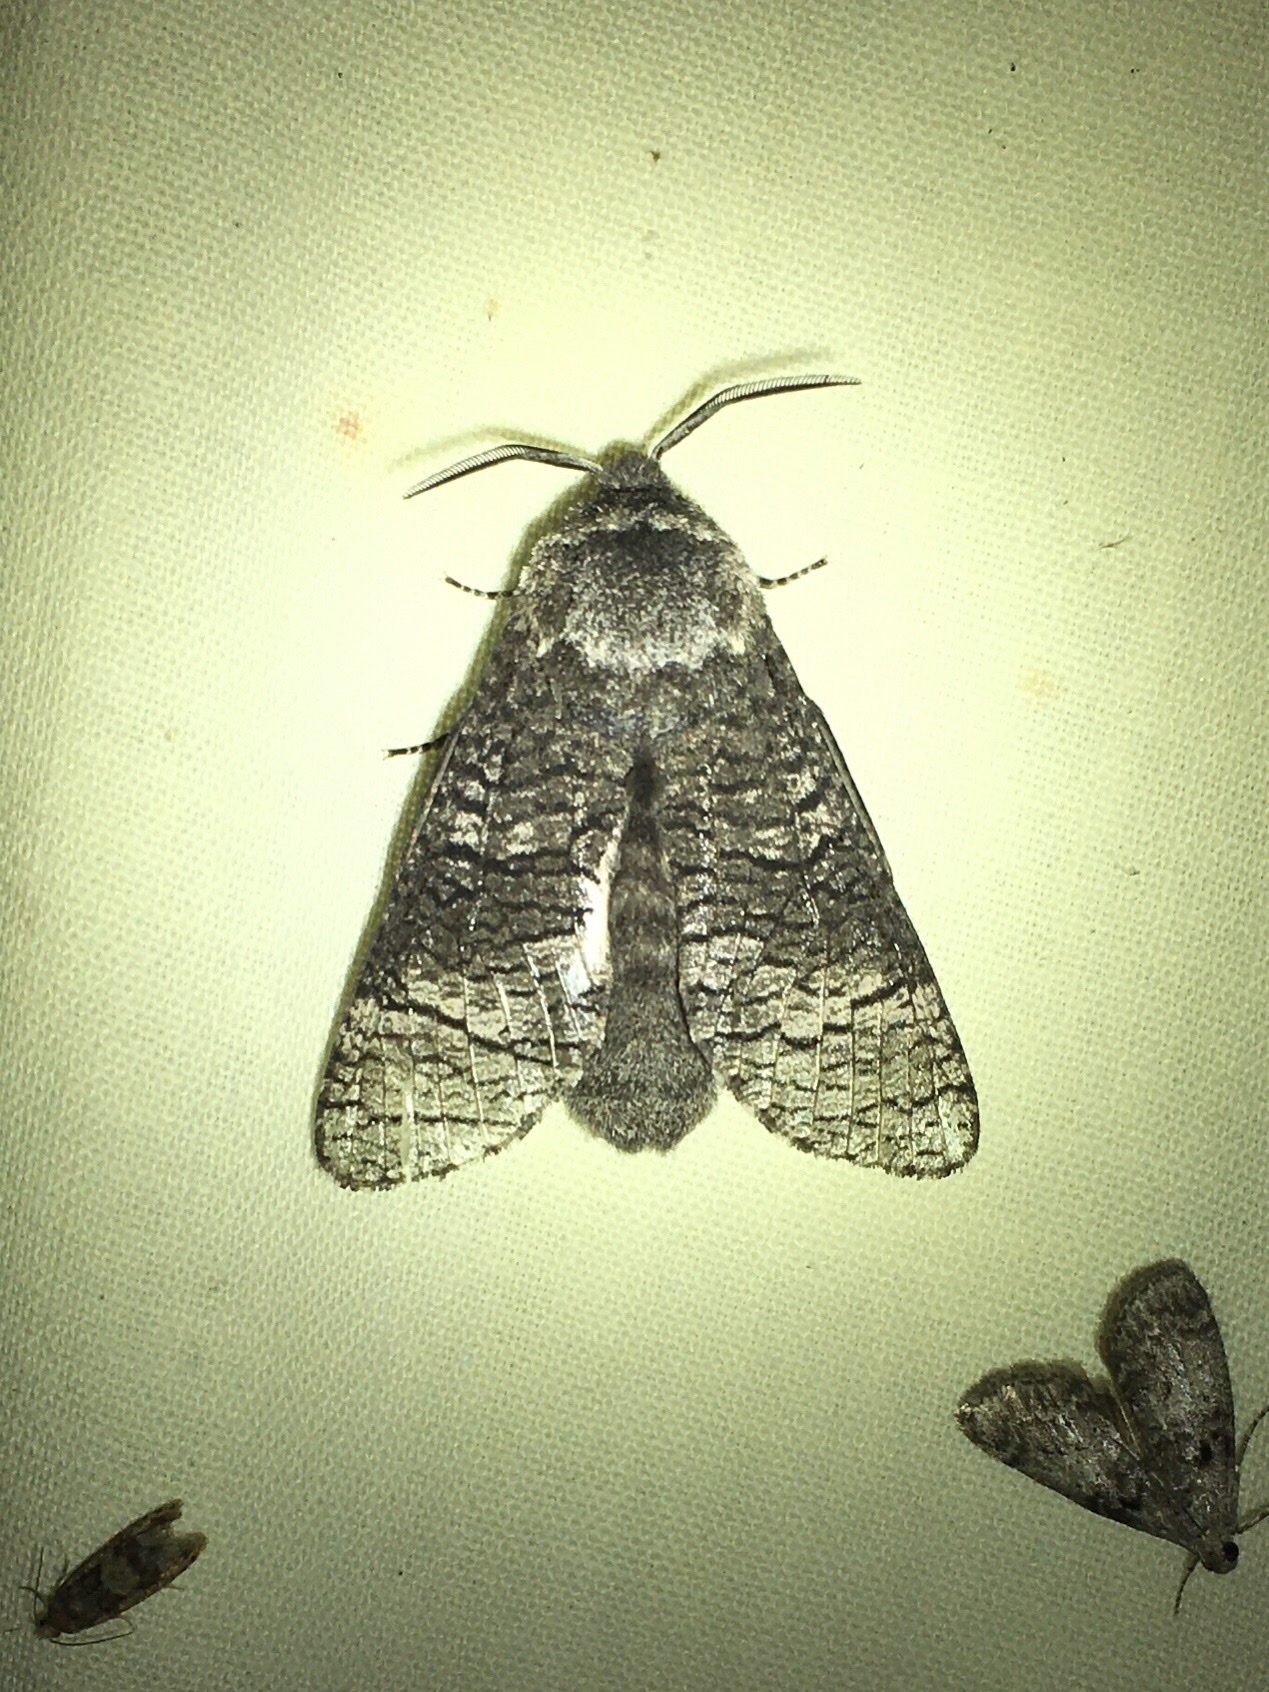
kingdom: Animalia
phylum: Arthropoda
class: Insecta
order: Lepidoptera
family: Cossidae
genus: Acossus
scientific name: Acossus centerensis
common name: Poplar carpenterworm moth
